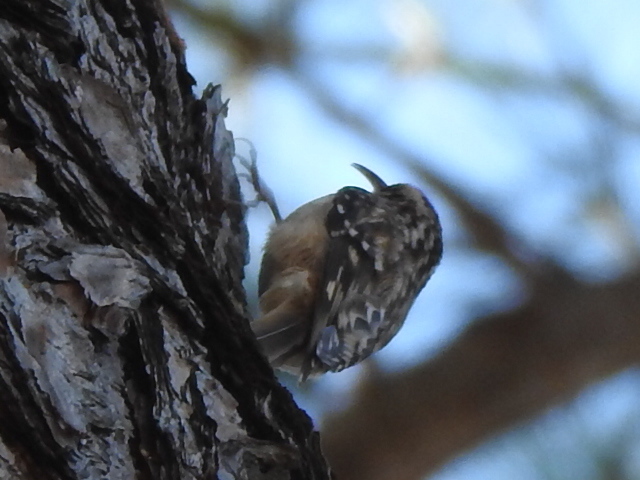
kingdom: Animalia
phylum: Chordata
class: Aves
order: Passeriformes
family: Certhiidae
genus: Certhia
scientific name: Certhia americana
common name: Brown creeper
